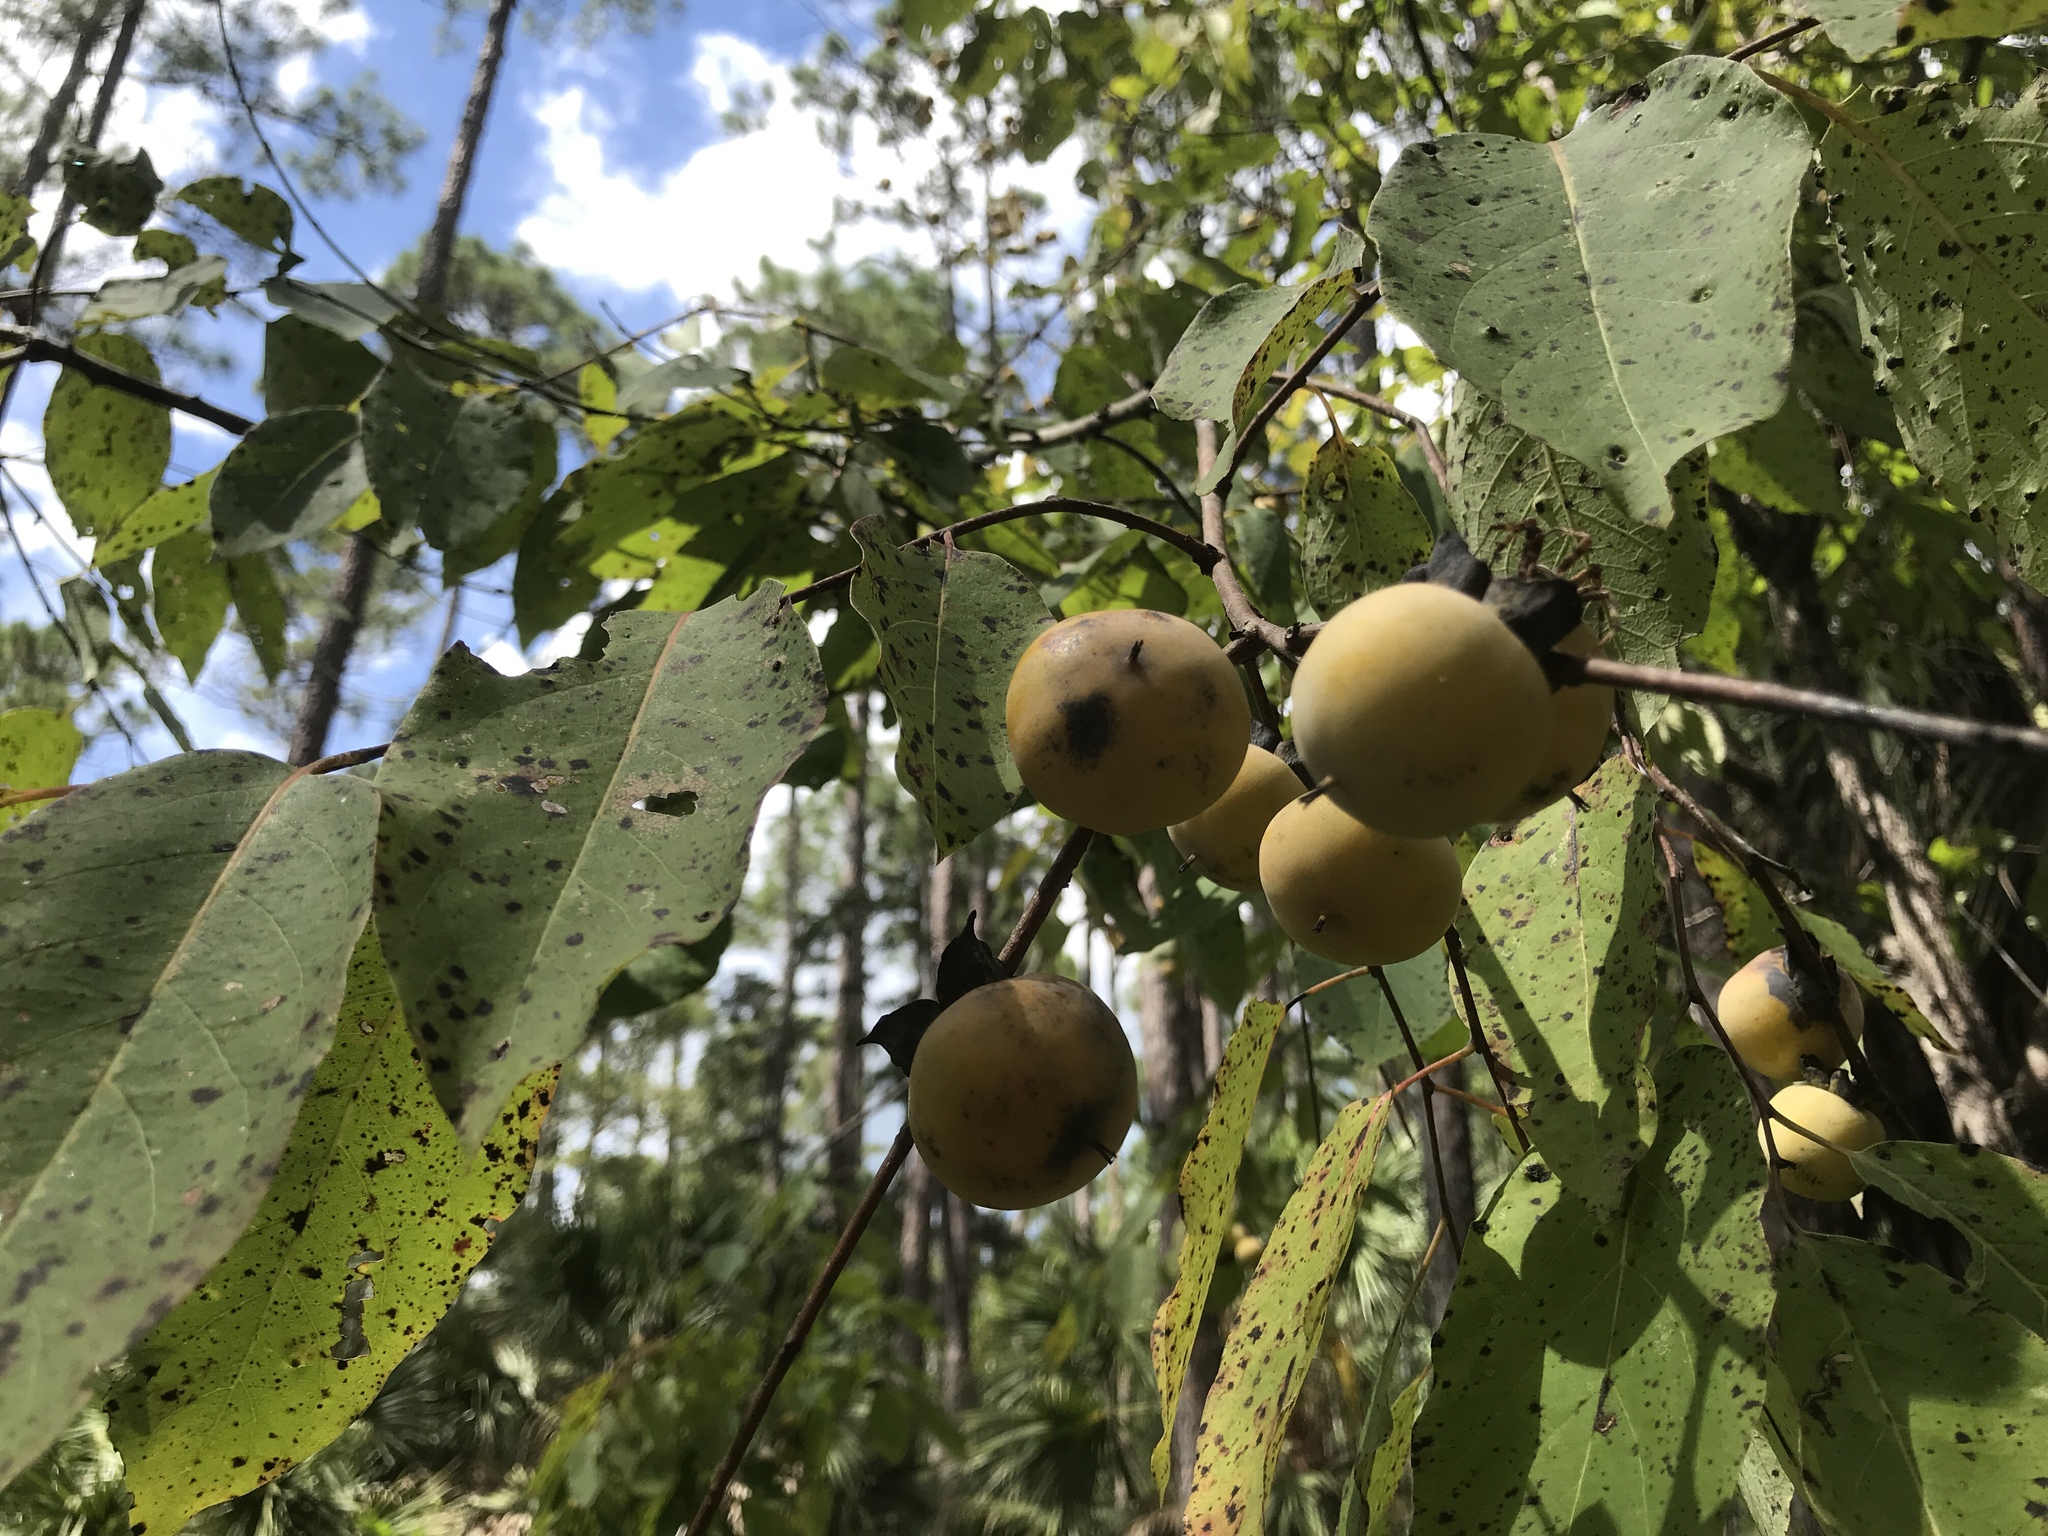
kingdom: Plantae
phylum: Tracheophyta
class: Magnoliopsida
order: Ericales
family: Ebenaceae
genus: Diospyros
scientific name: Diospyros virginiana
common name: Persimmon
